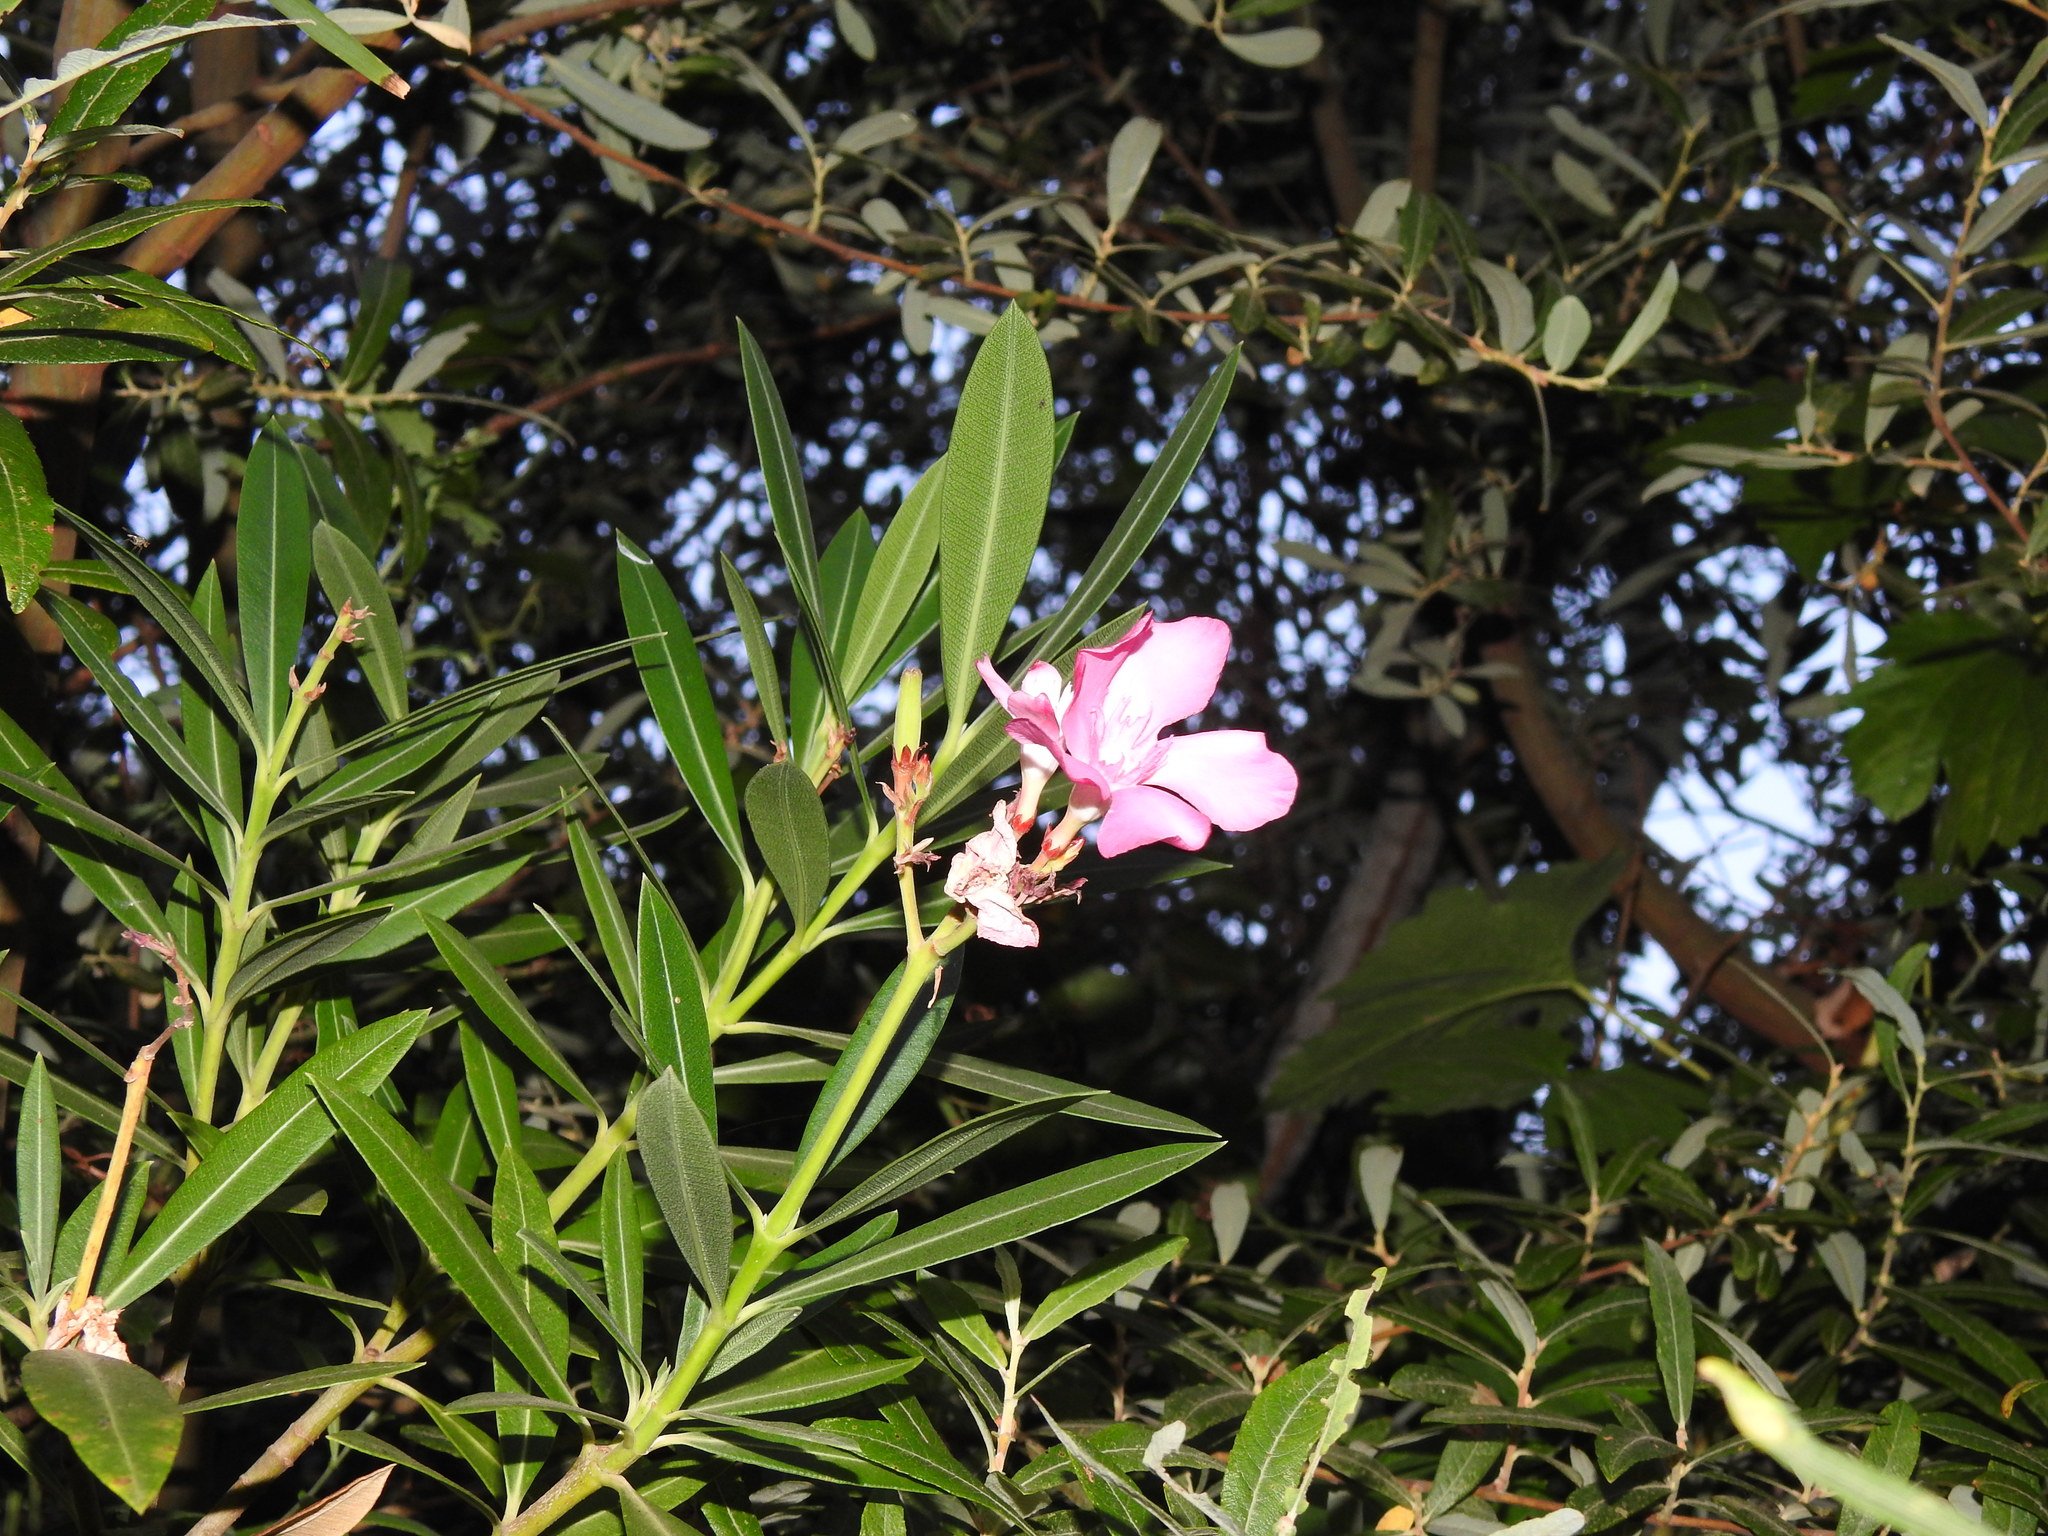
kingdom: Plantae
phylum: Tracheophyta
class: Magnoliopsida
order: Gentianales
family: Apocynaceae
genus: Nerium
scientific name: Nerium oleander
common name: Oleander
